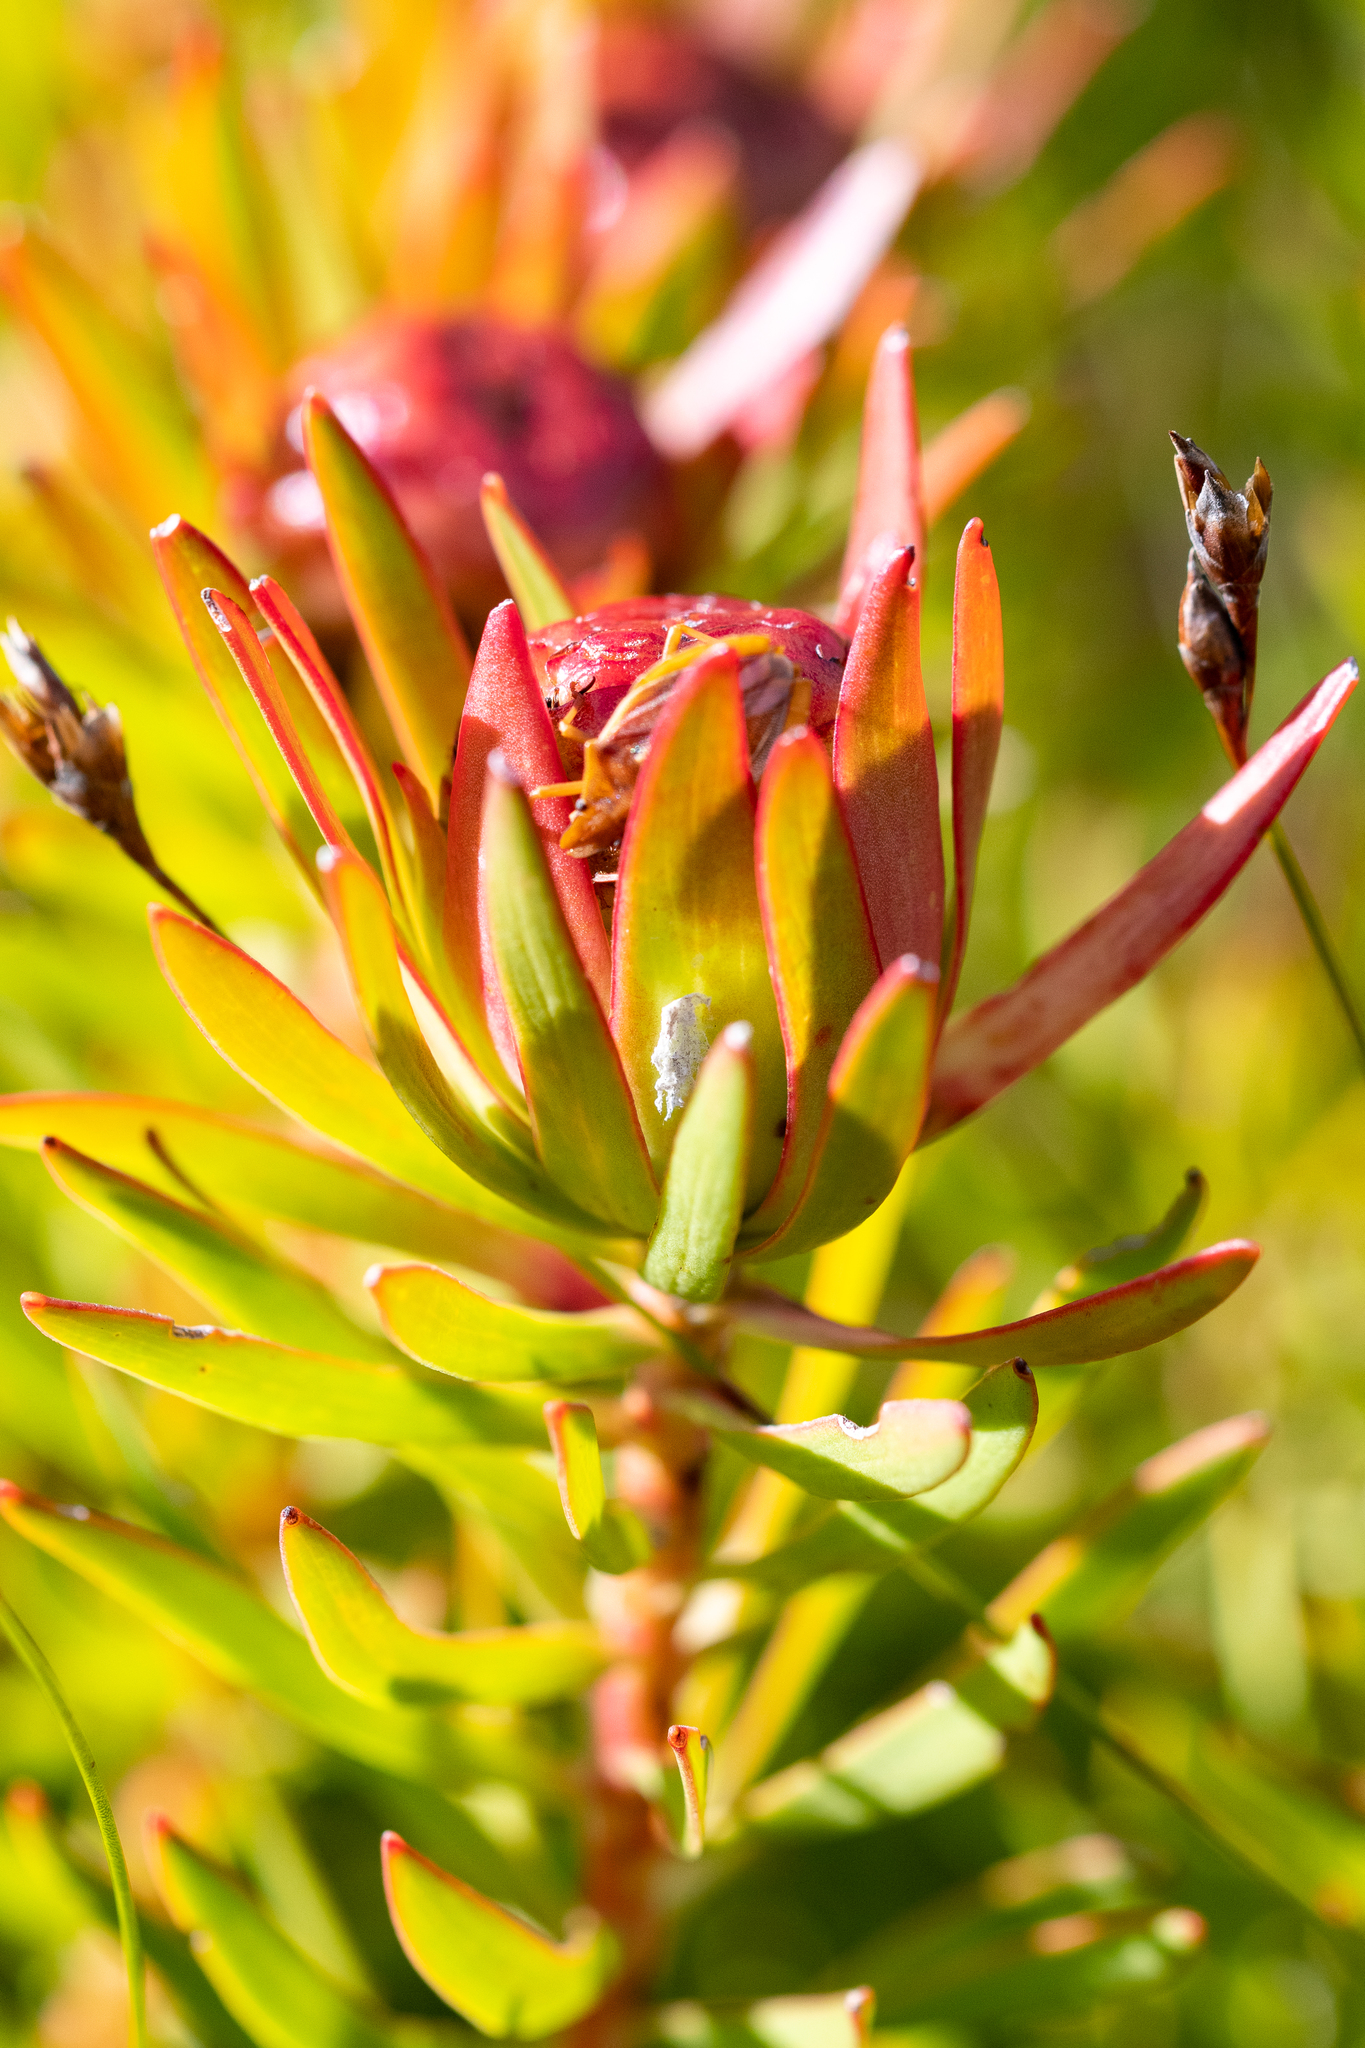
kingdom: Plantae
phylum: Tracheophyta
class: Magnoliopsida
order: Proteales
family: Proteaceae
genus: Leucadendron
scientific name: Leucadendron spissifolium
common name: Spear-leaf conebush
